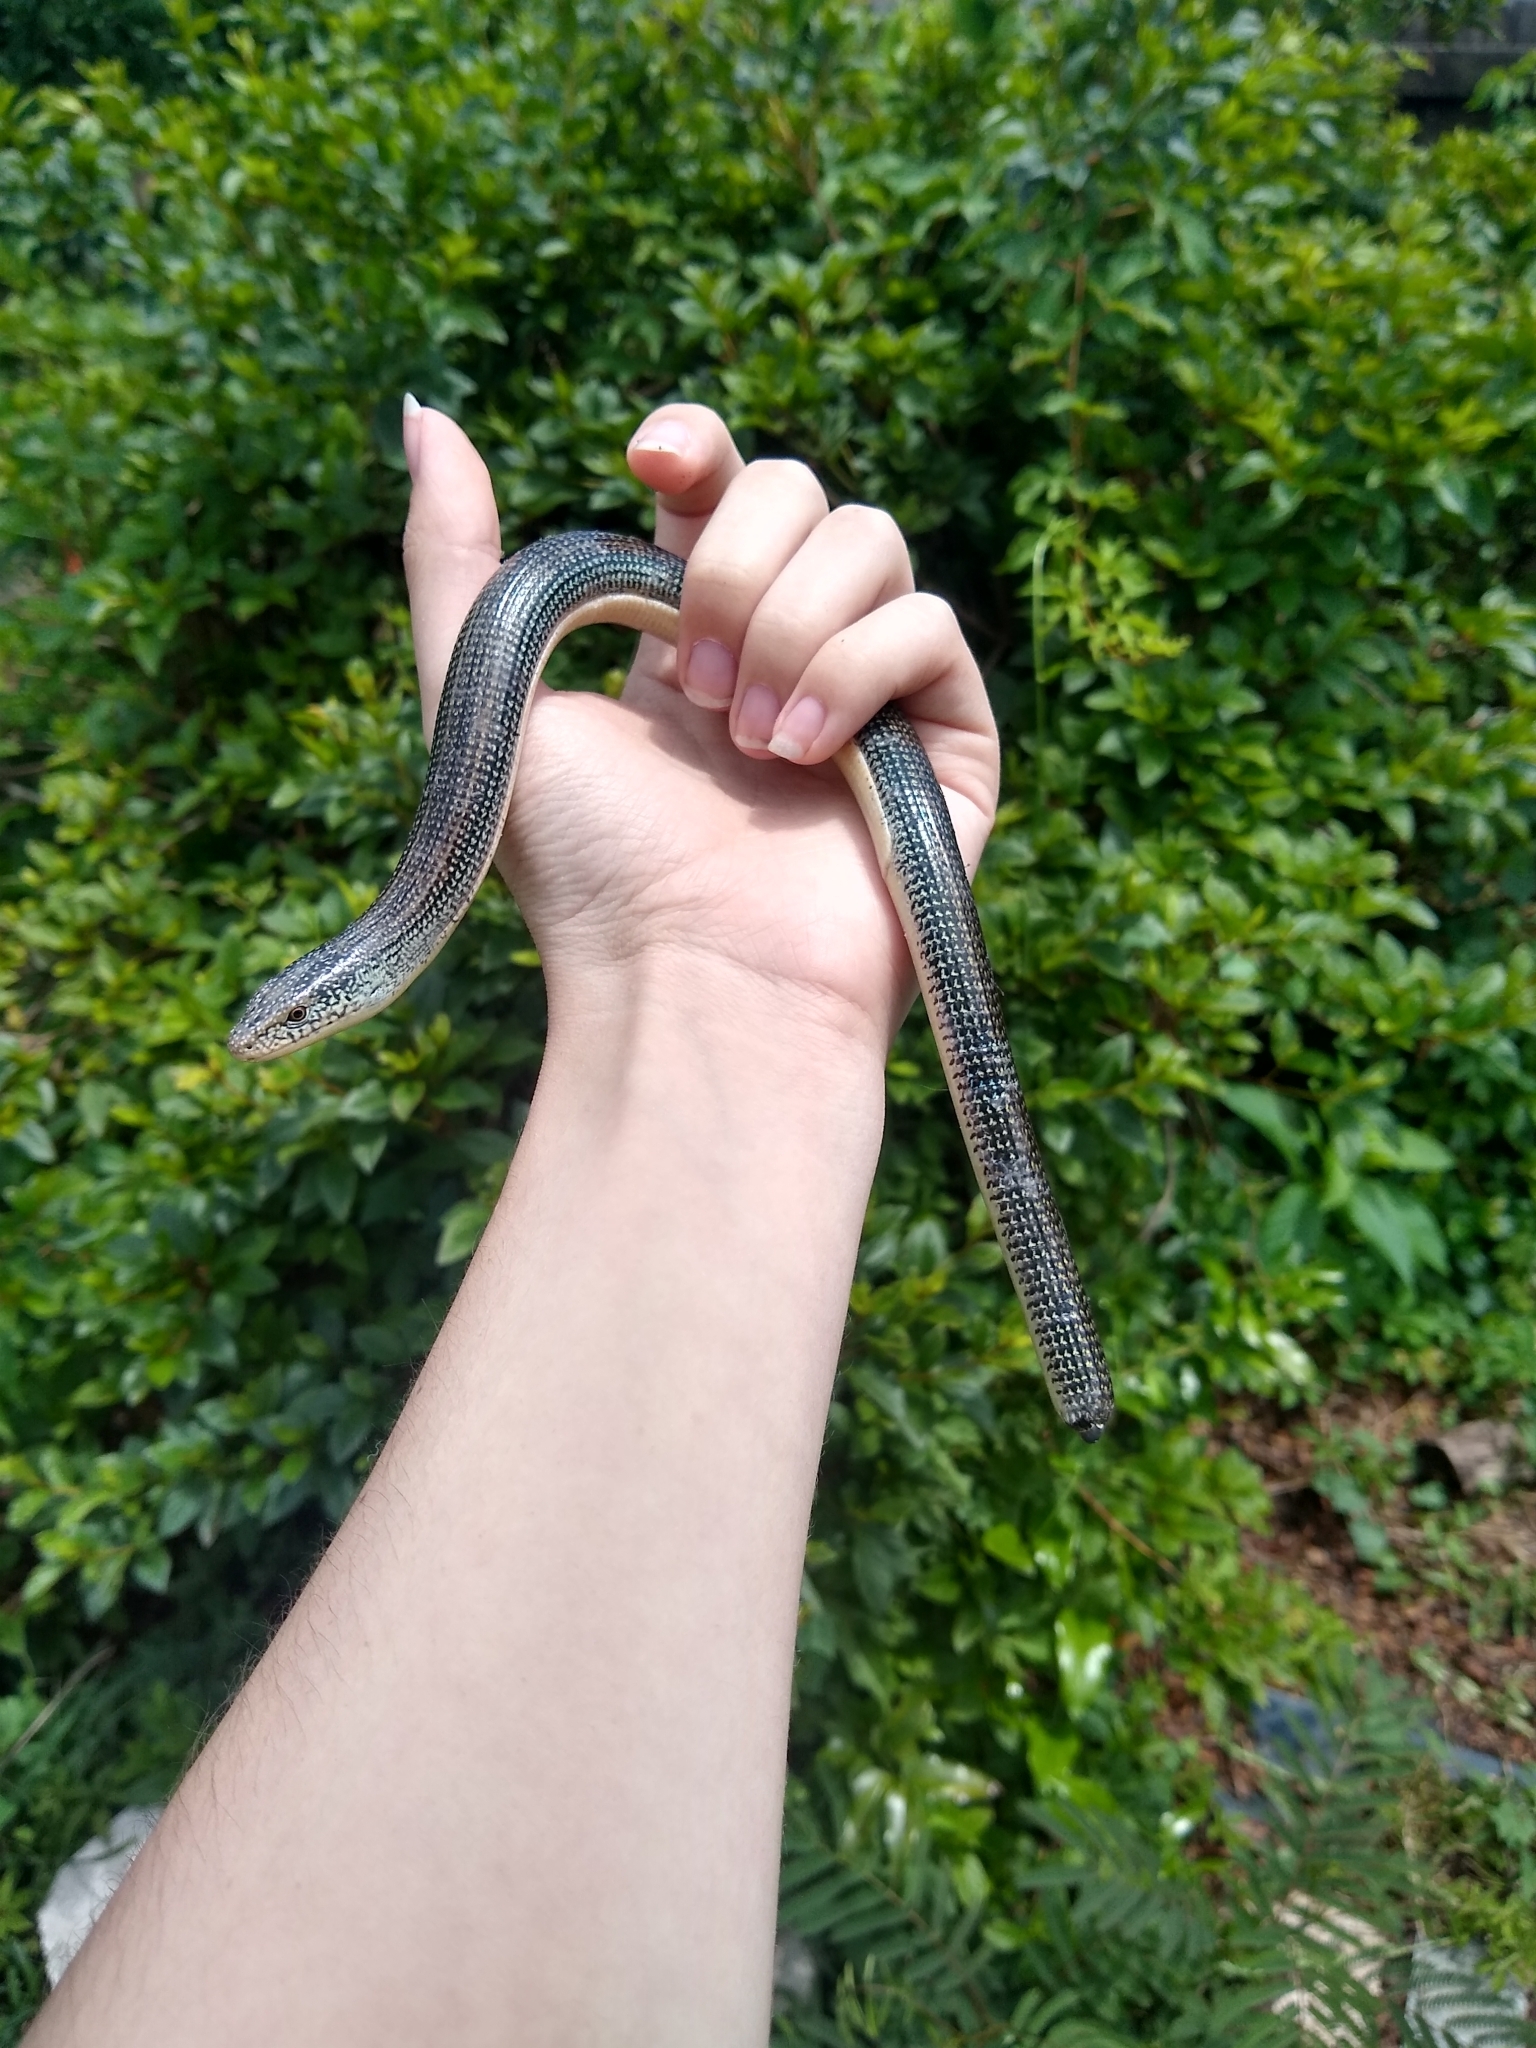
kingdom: Animalia
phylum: Chordata
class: Squamata
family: Anguidae
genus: Ophisaurus
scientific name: Ophisaurus ventralis
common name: Eastern glass lizard
